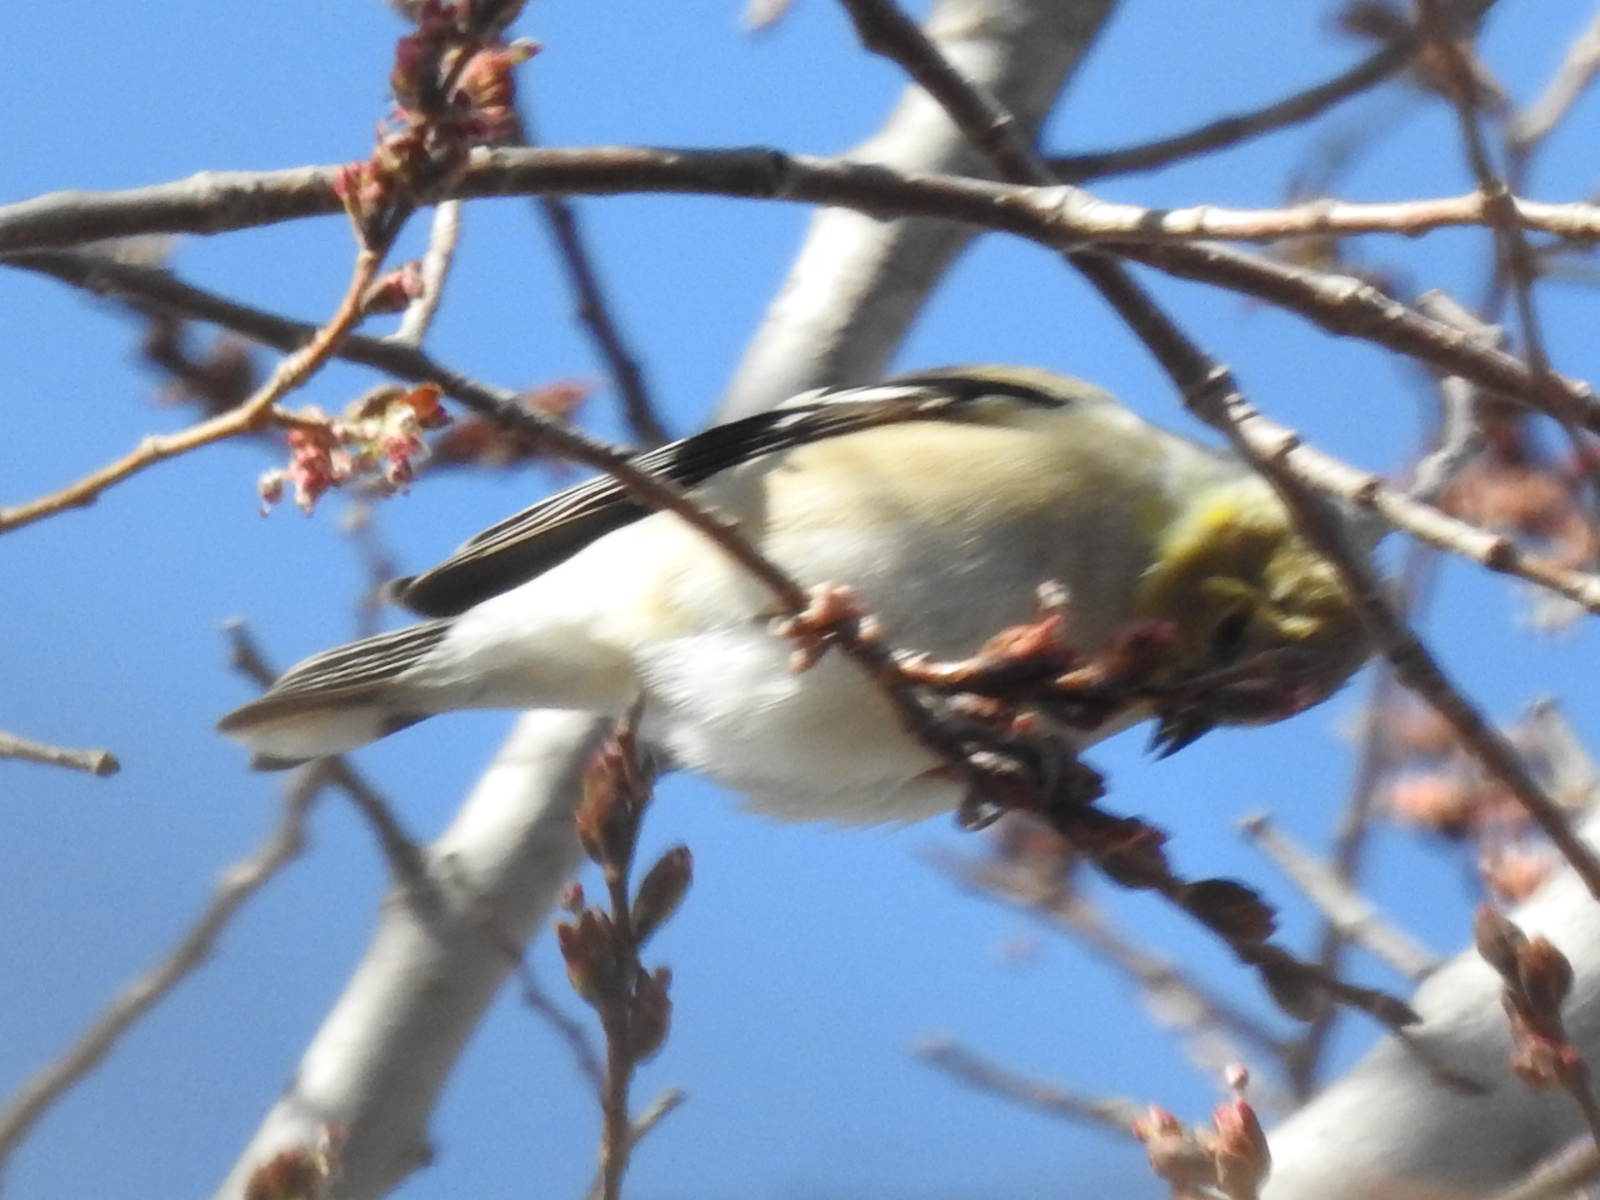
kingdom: Animalia
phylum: Chordata
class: Aves
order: Passeriformes
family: Fringillidae
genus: Spinus
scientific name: Spinus tristis
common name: American goldfinch
